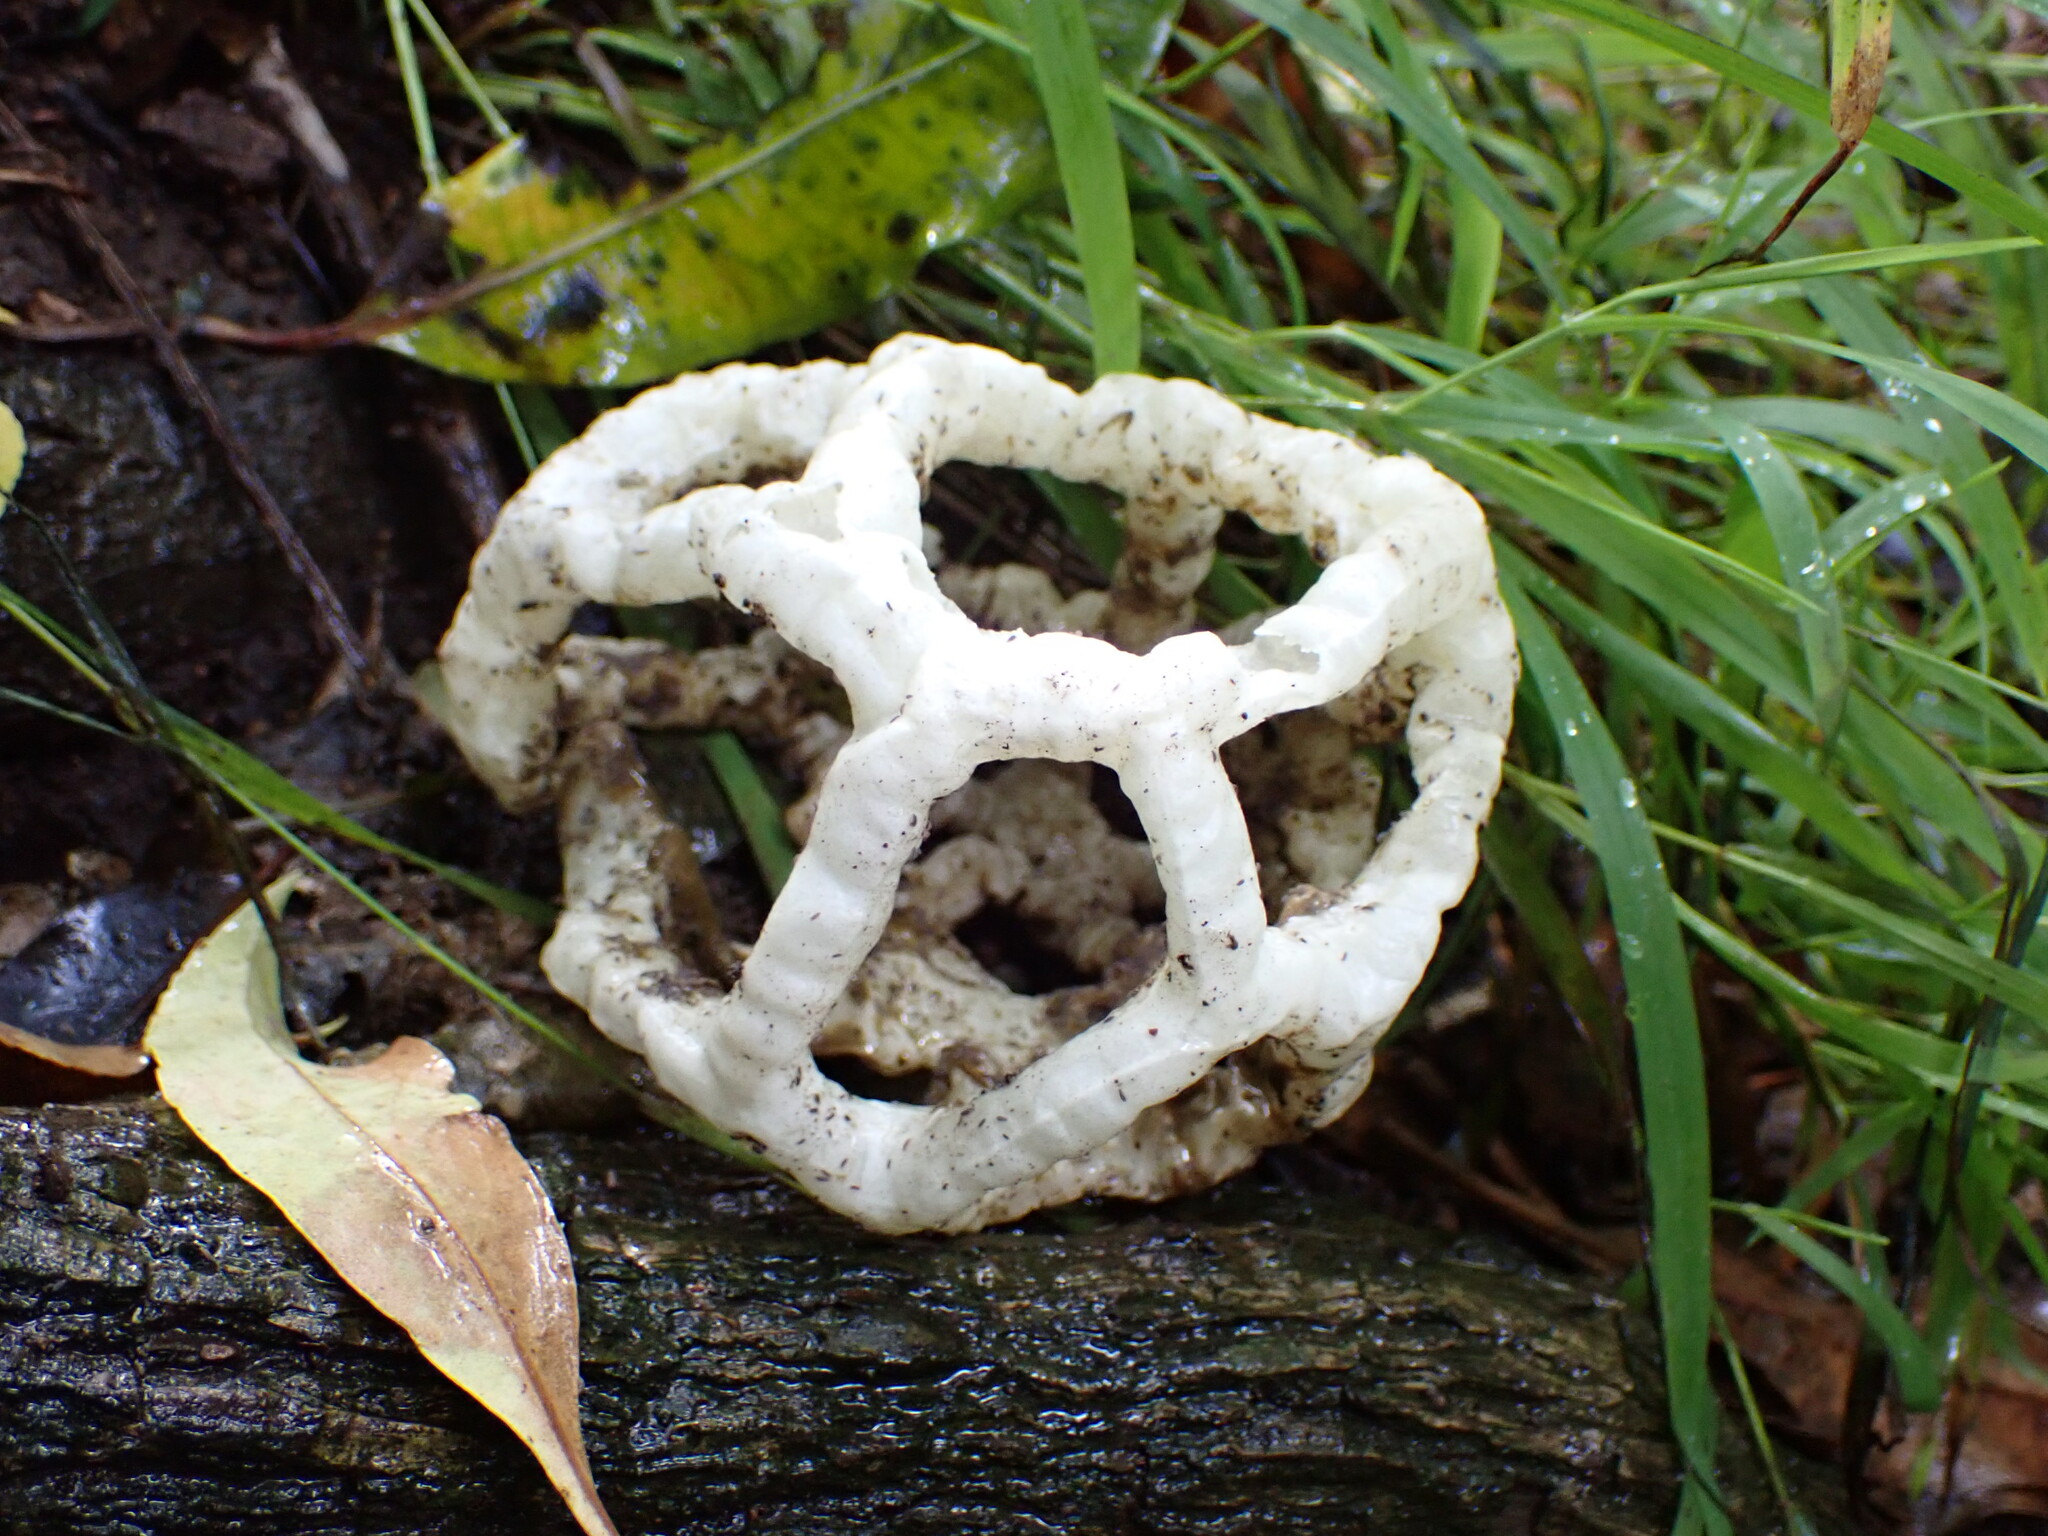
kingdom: Fungi
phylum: Basidiomycota
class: Agaricomycetes
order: Phallales
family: Phallaceae
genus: Ileodictyon
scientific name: Ileodictyon cibarium
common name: Basket fungus
